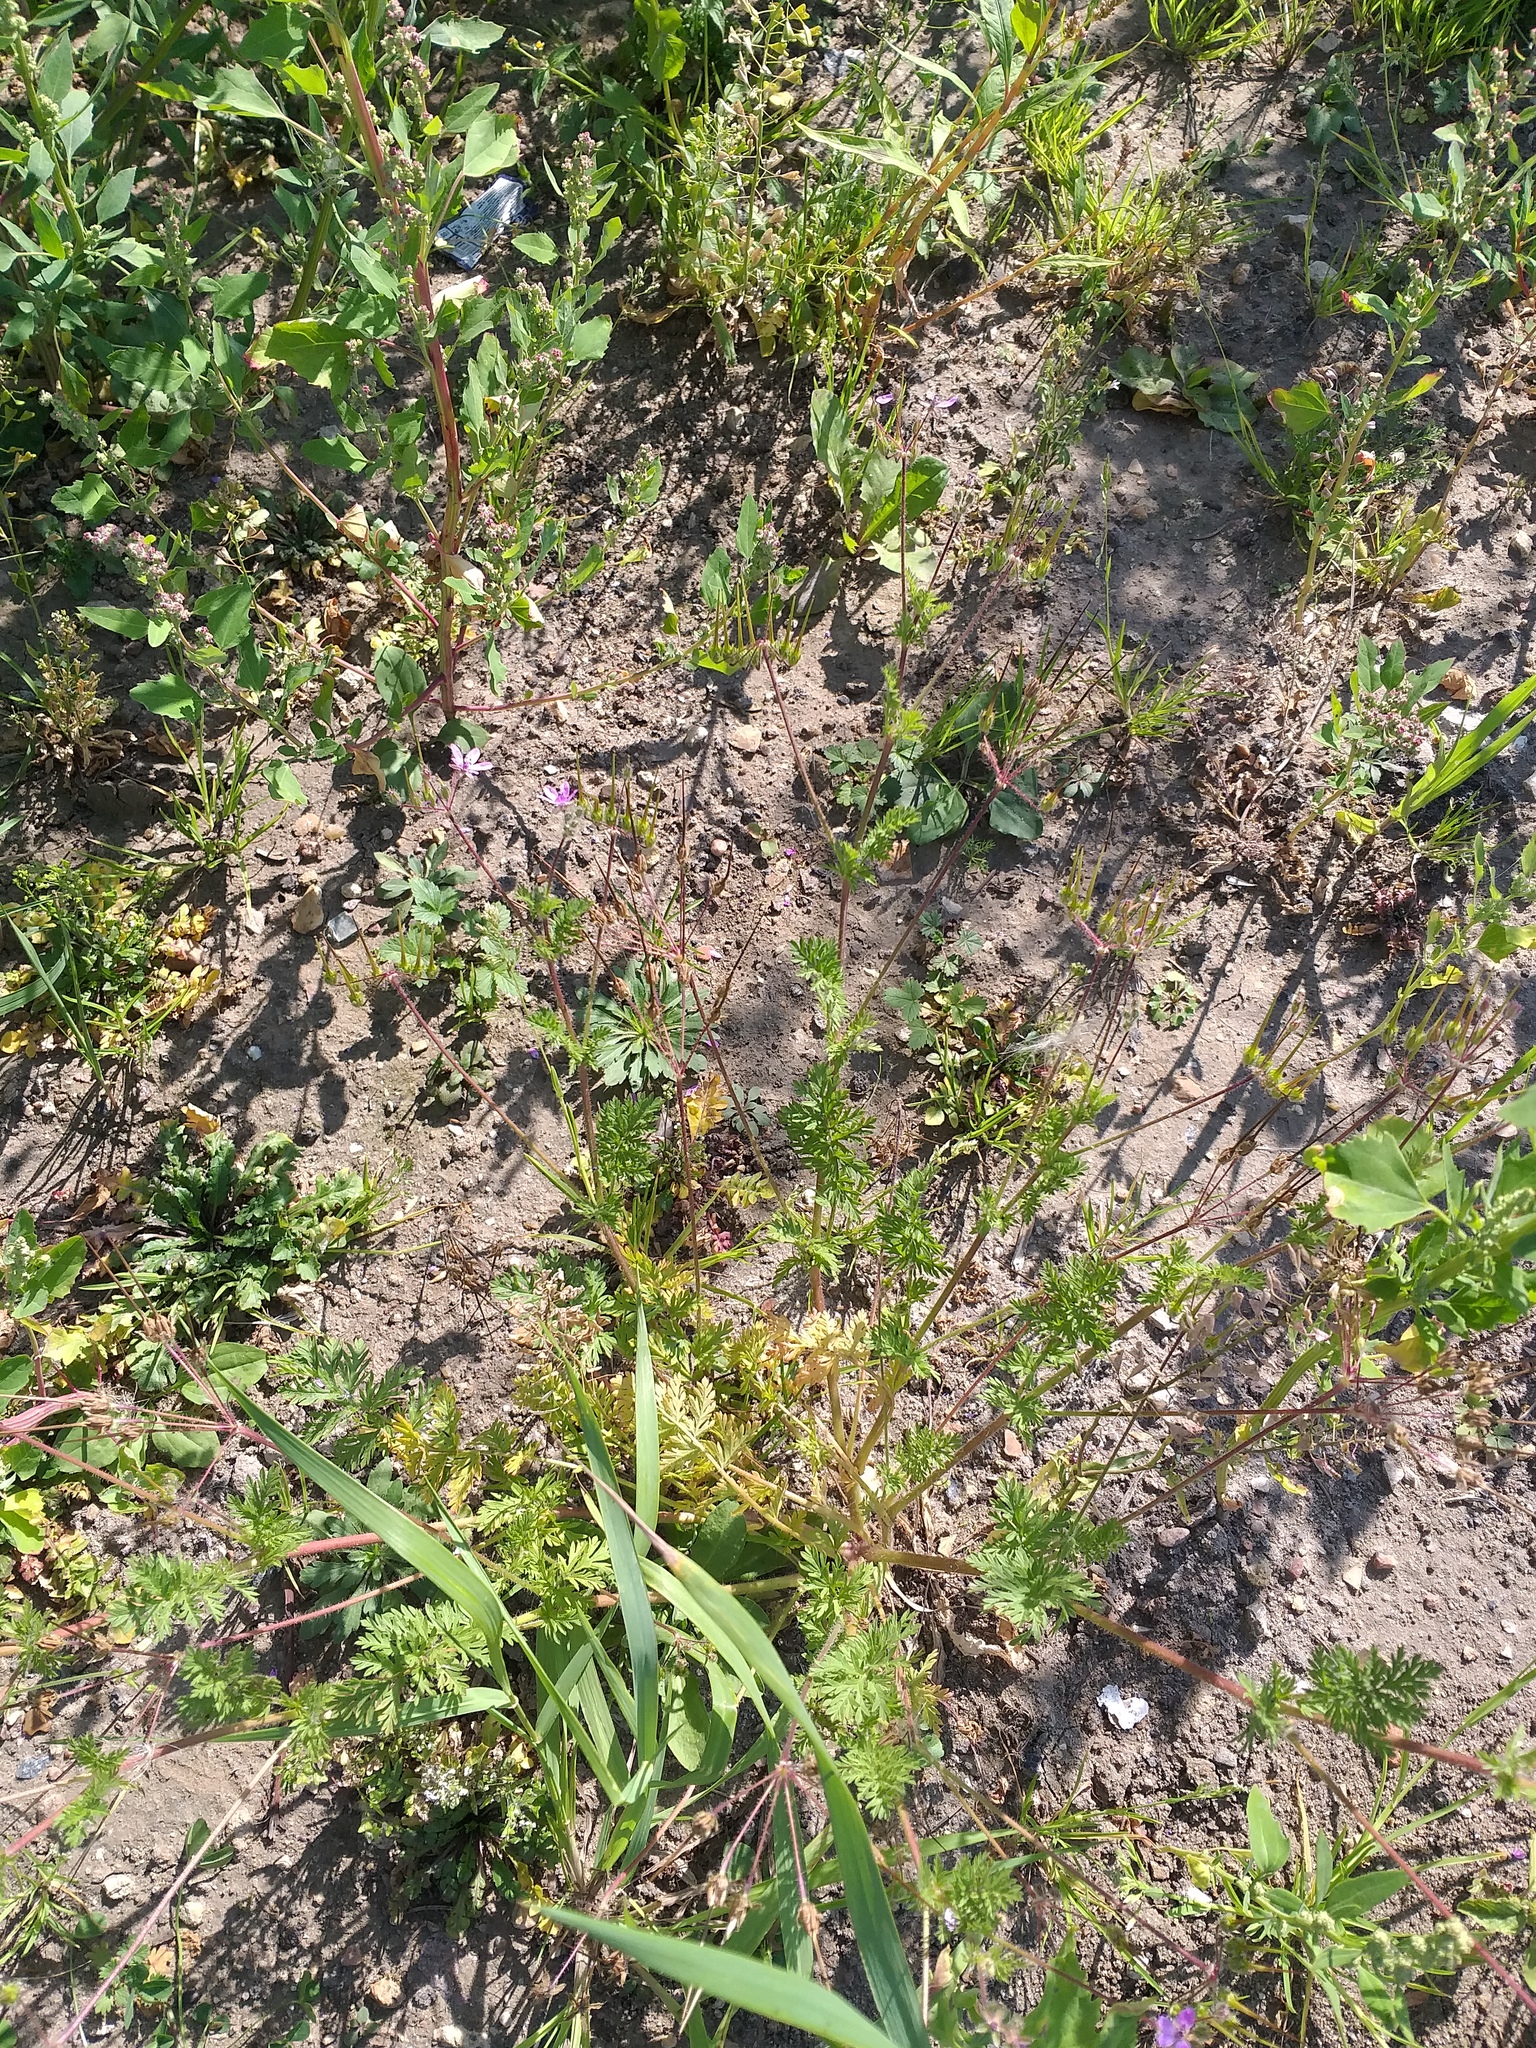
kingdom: Plantae
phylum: Tracheophyta
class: Magnoliopsida
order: Geraniales
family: Geraniaceae
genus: Erodium
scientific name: Erodium cicutarium
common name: Common stork's-bill
